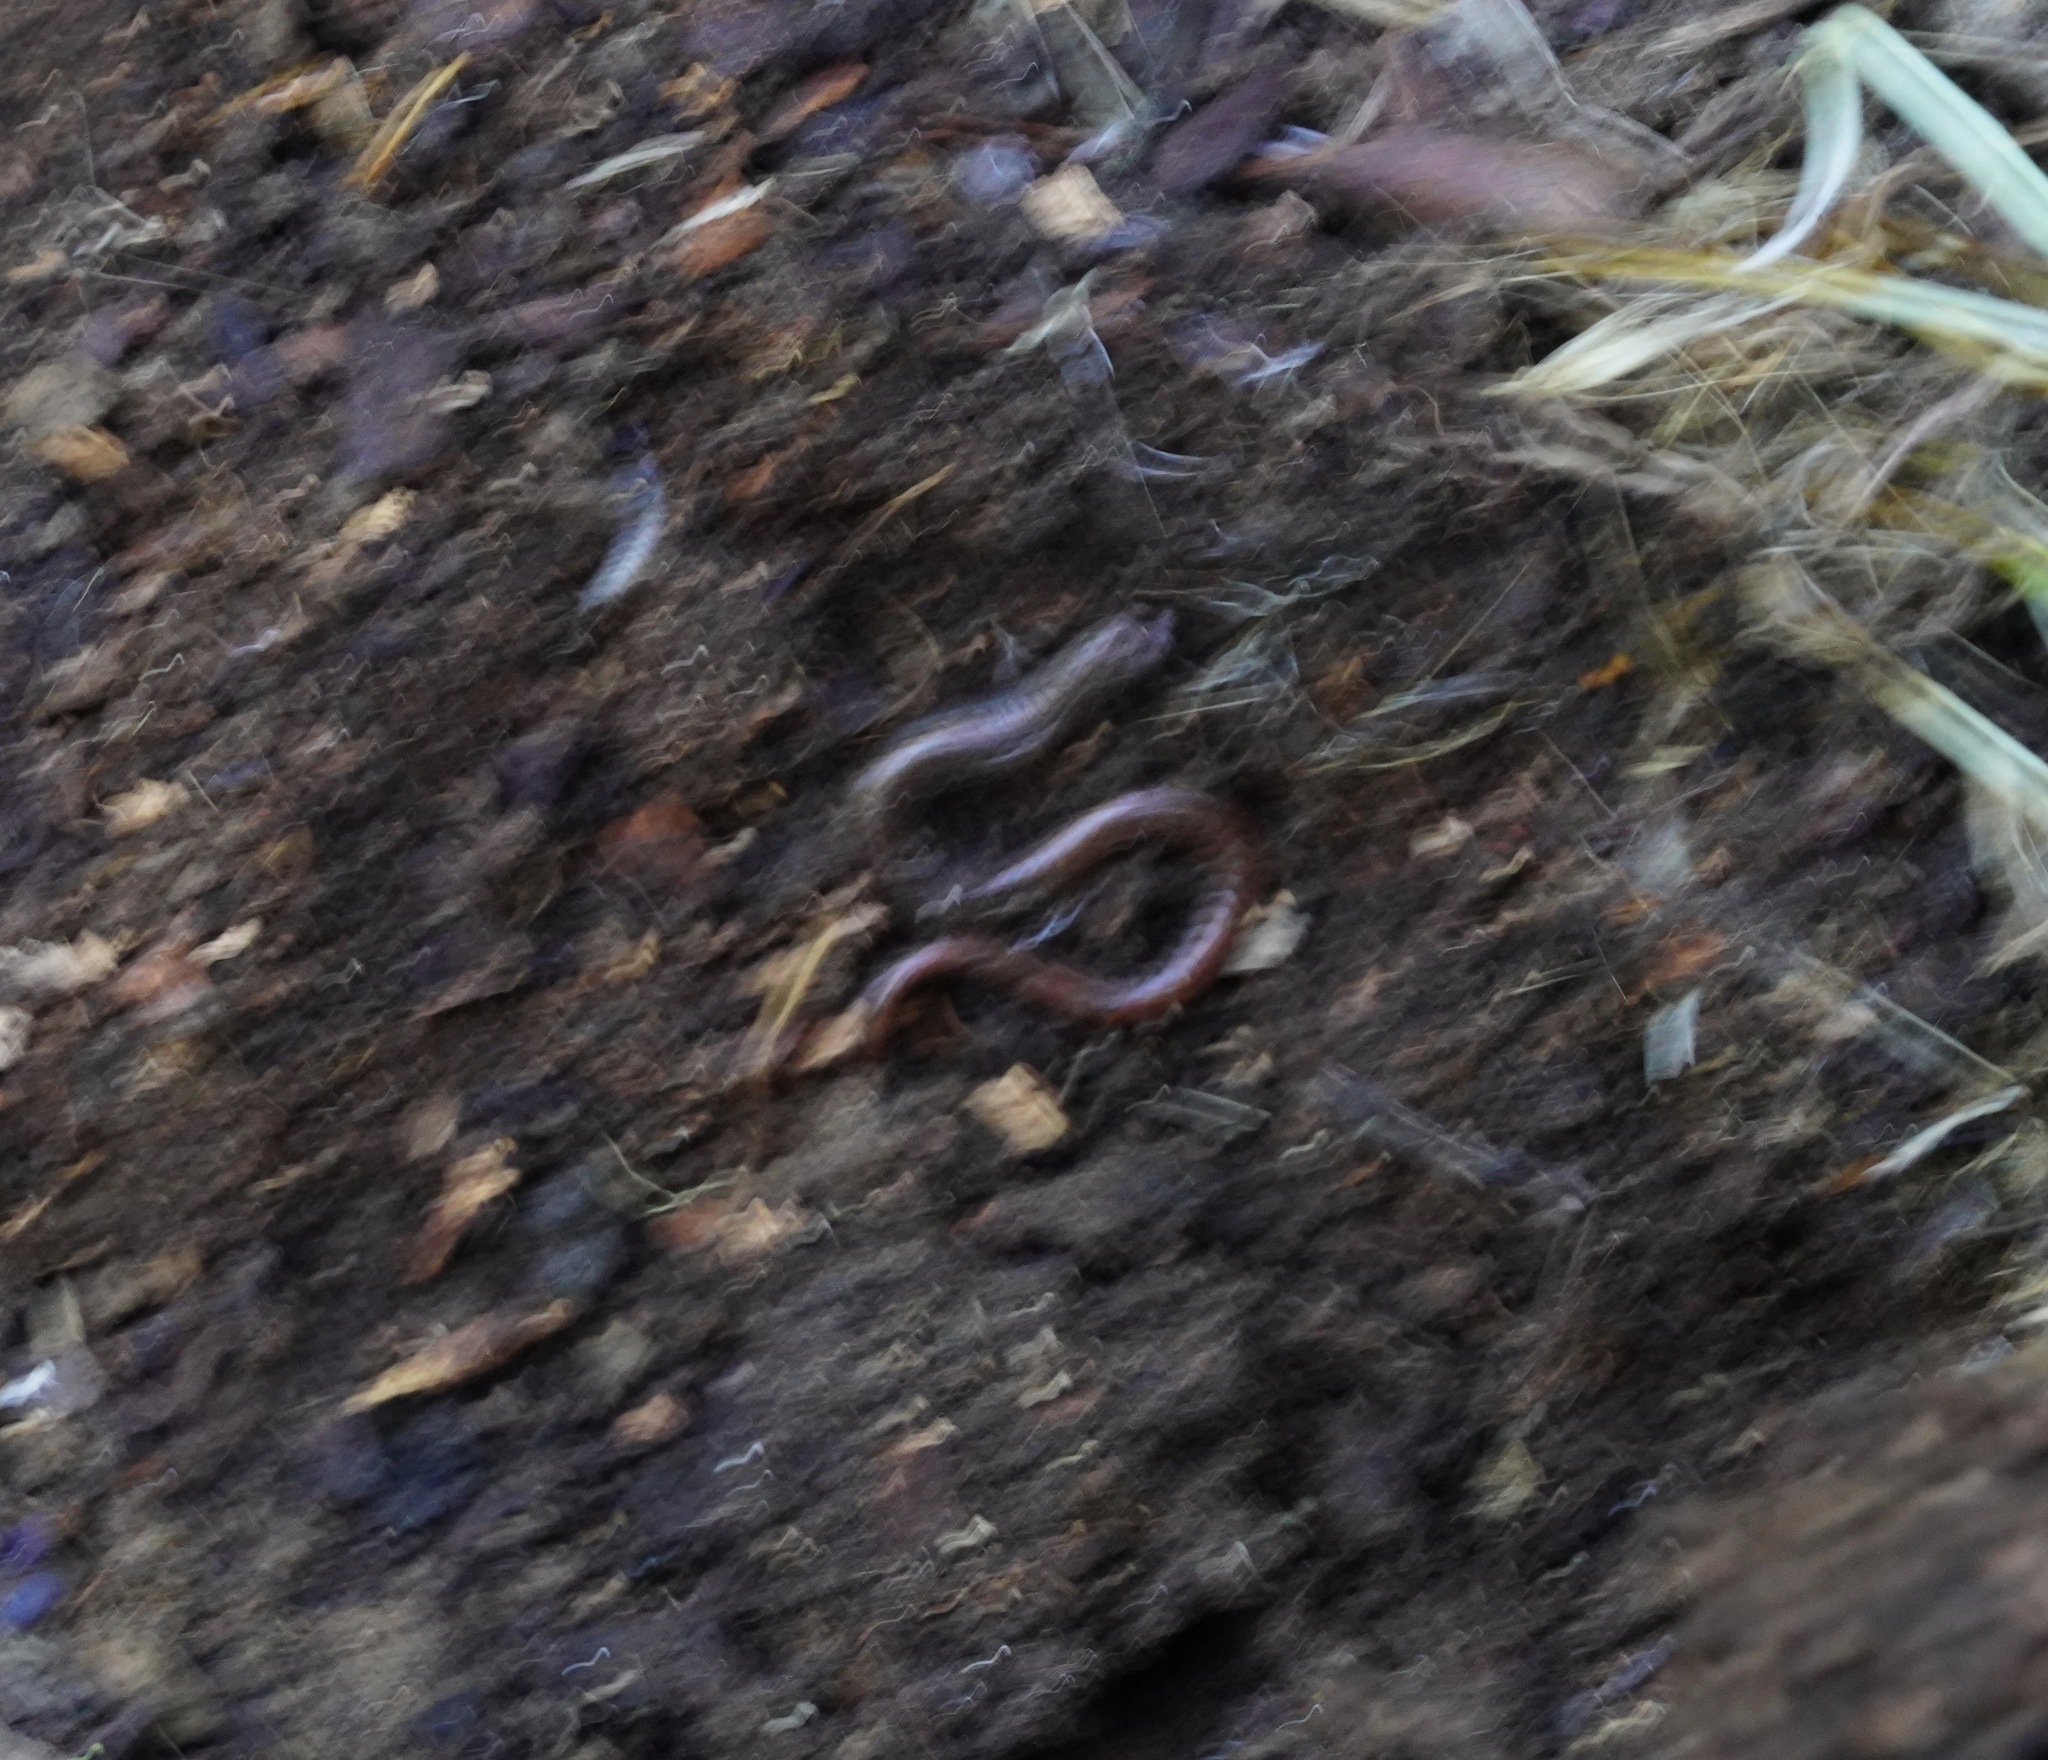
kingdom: Animalia
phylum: Chordata
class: Amphibia
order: Caudata
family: Plethodontidae
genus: Batrachoseps
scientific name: Batrachoseps attenuatus
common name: California slender salamander
